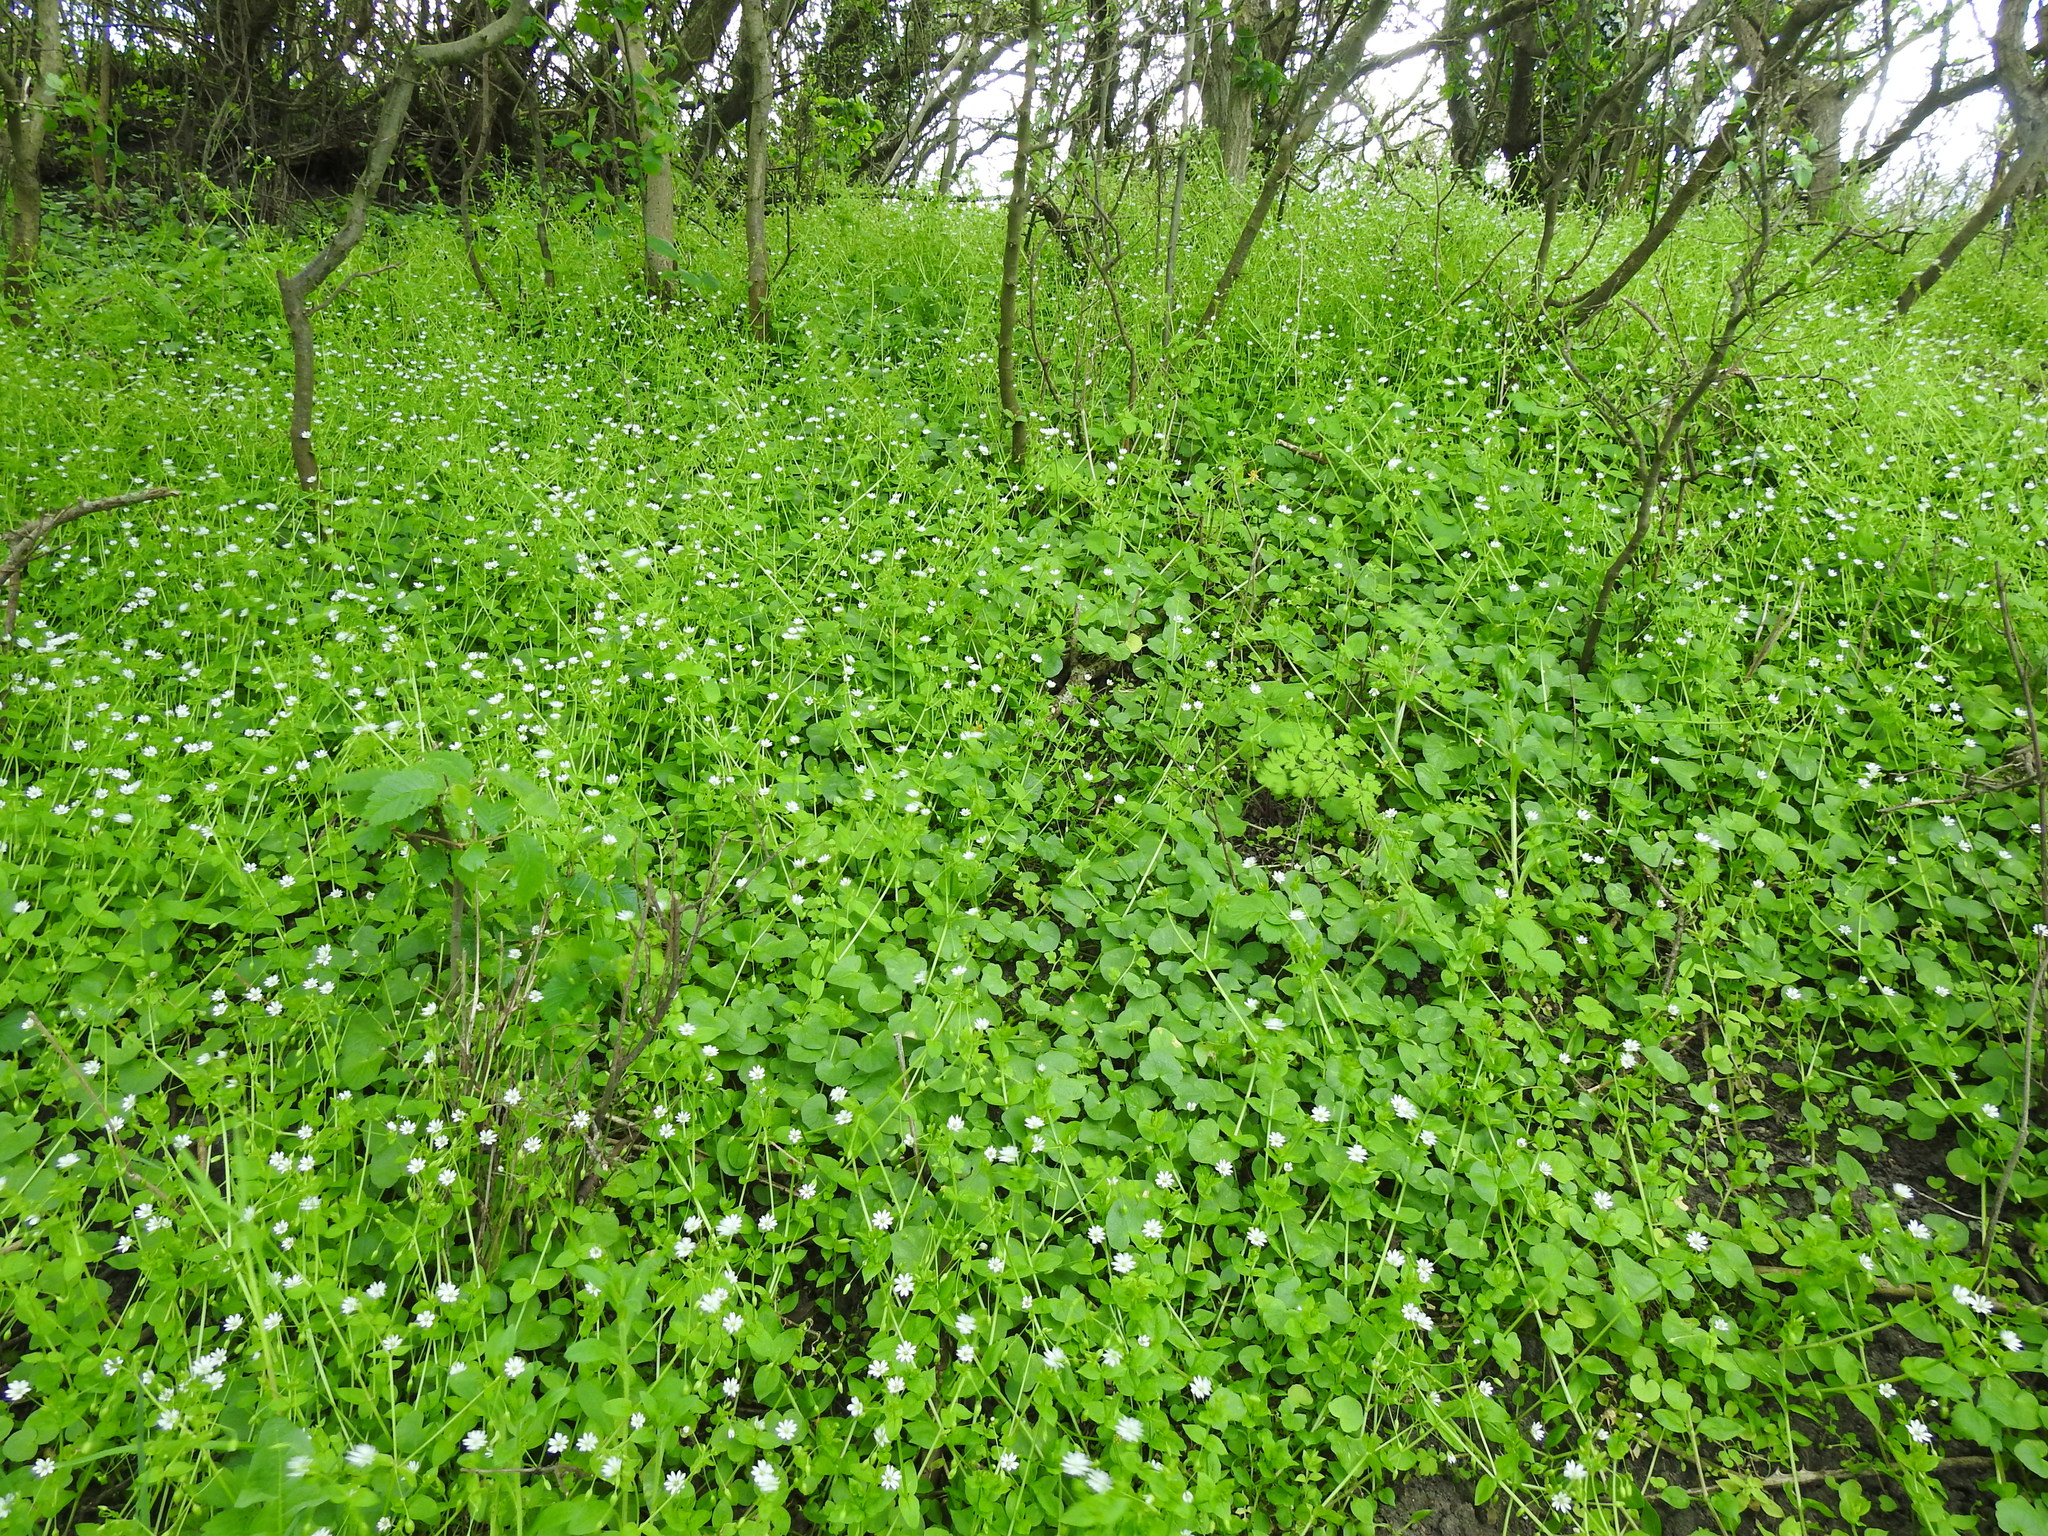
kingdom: Plantae
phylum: Tracheophyta
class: Magnoliopsida
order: Ranunculales
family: Ranunculaceae
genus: Ficaria
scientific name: Ficaria verna
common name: Lesser celandine
